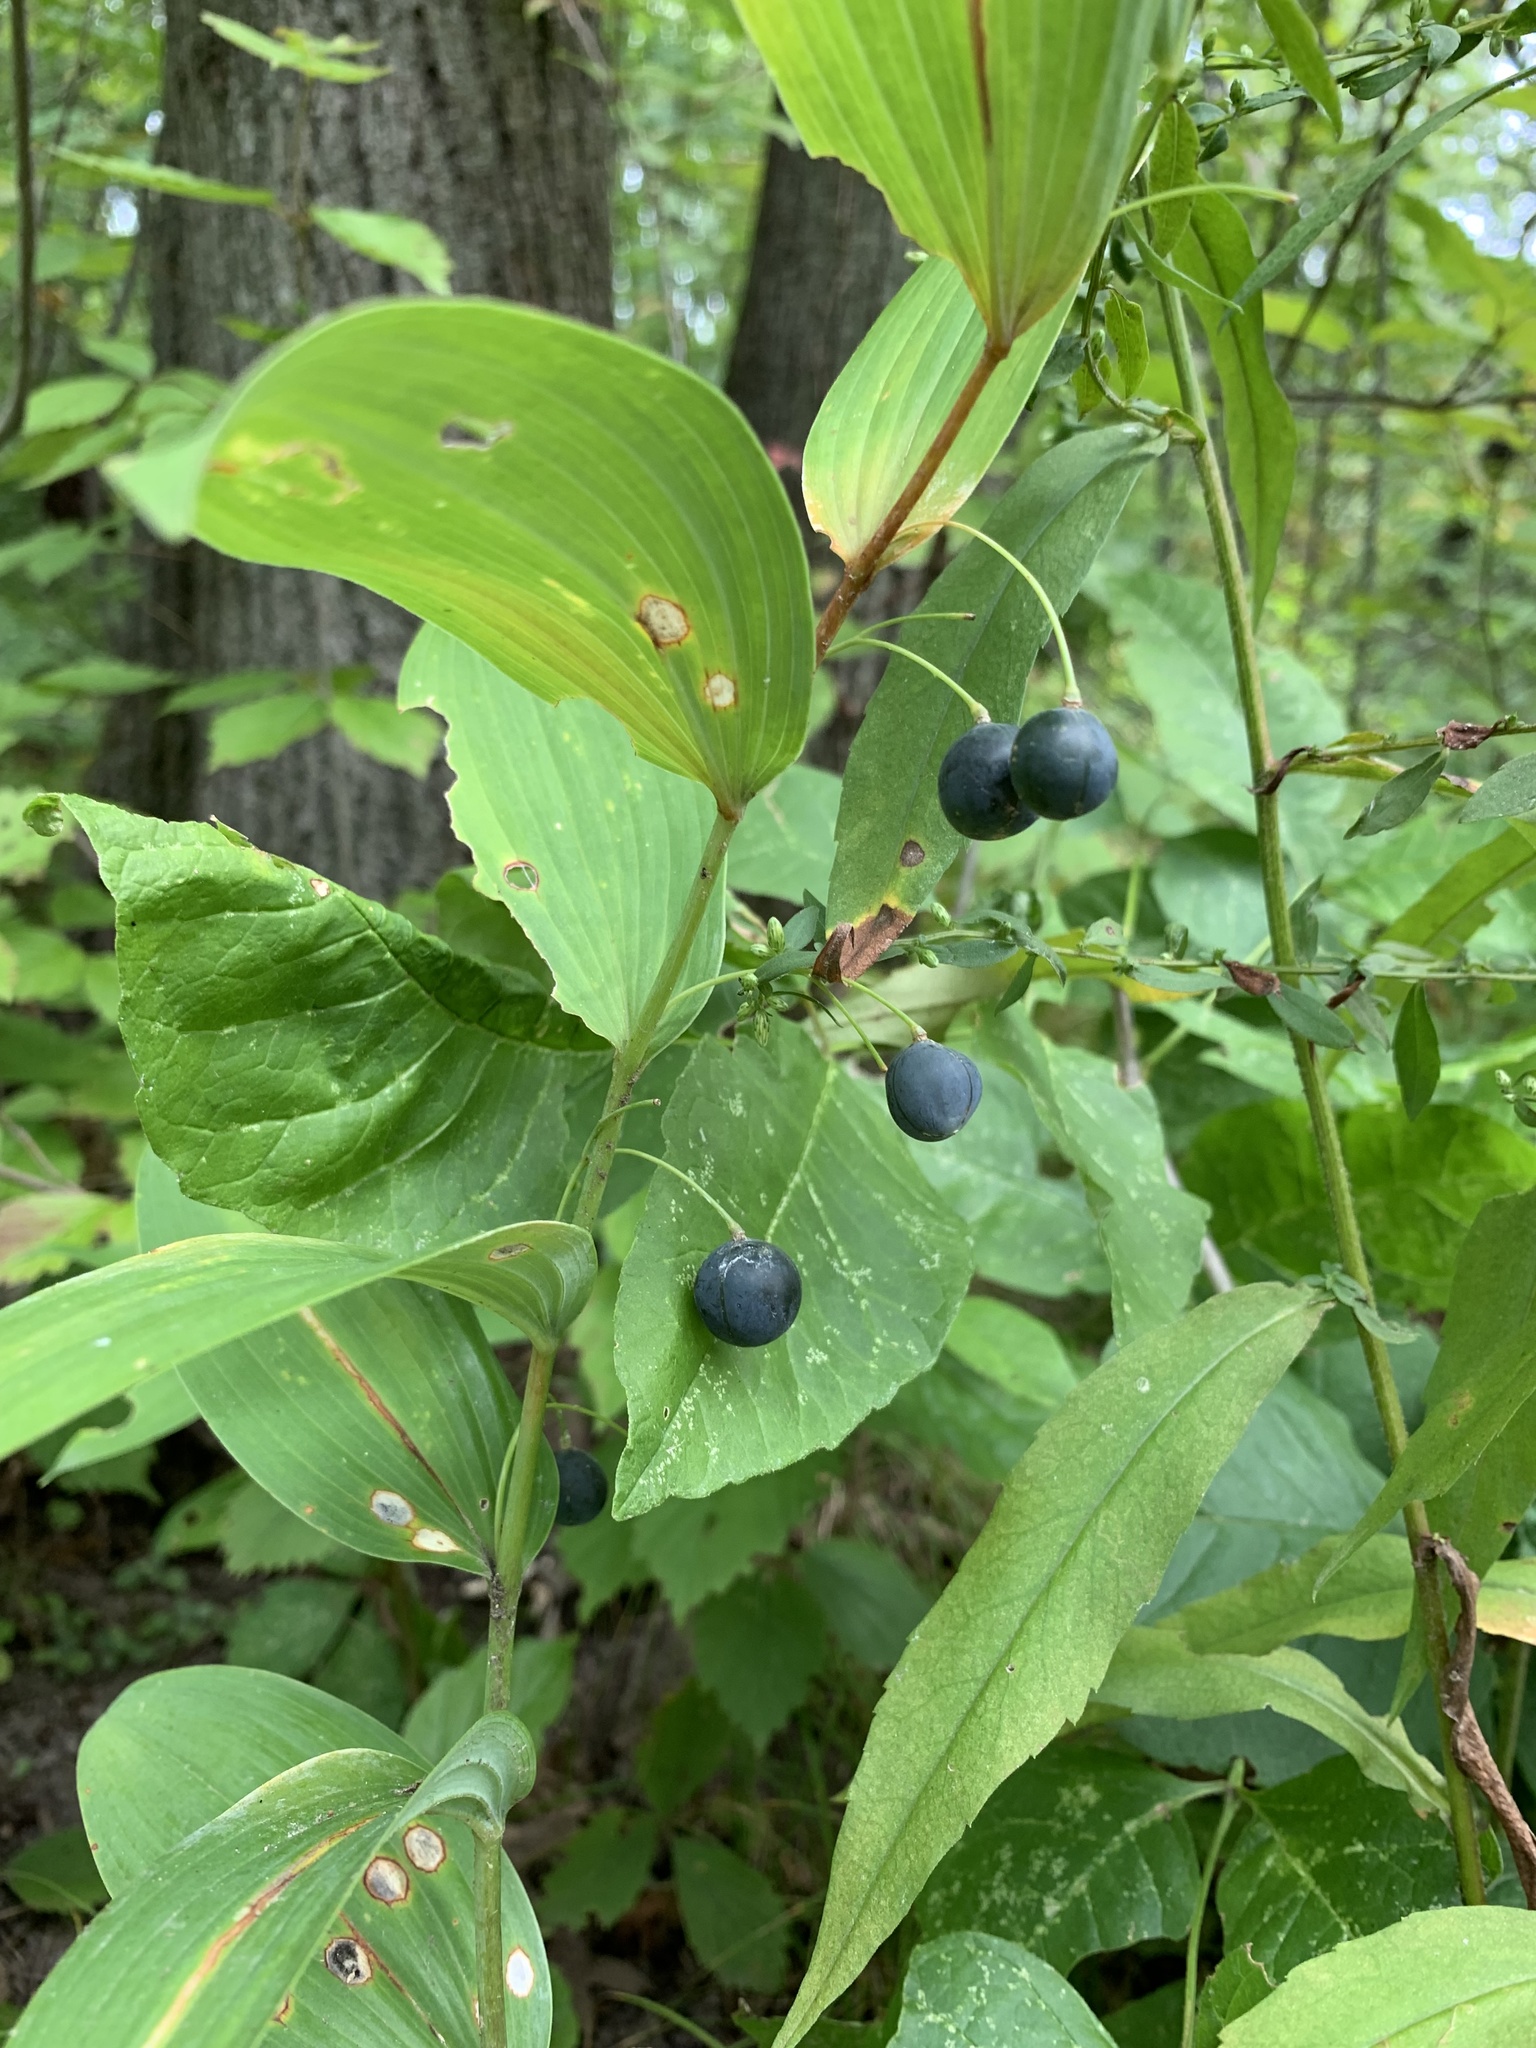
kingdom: Plantae
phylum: Tracheophyta
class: Liliopsida
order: Asparagales
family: Asparagaceae
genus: Polygonatum
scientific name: Polygonatum biflorum
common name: American solomon's-seal
